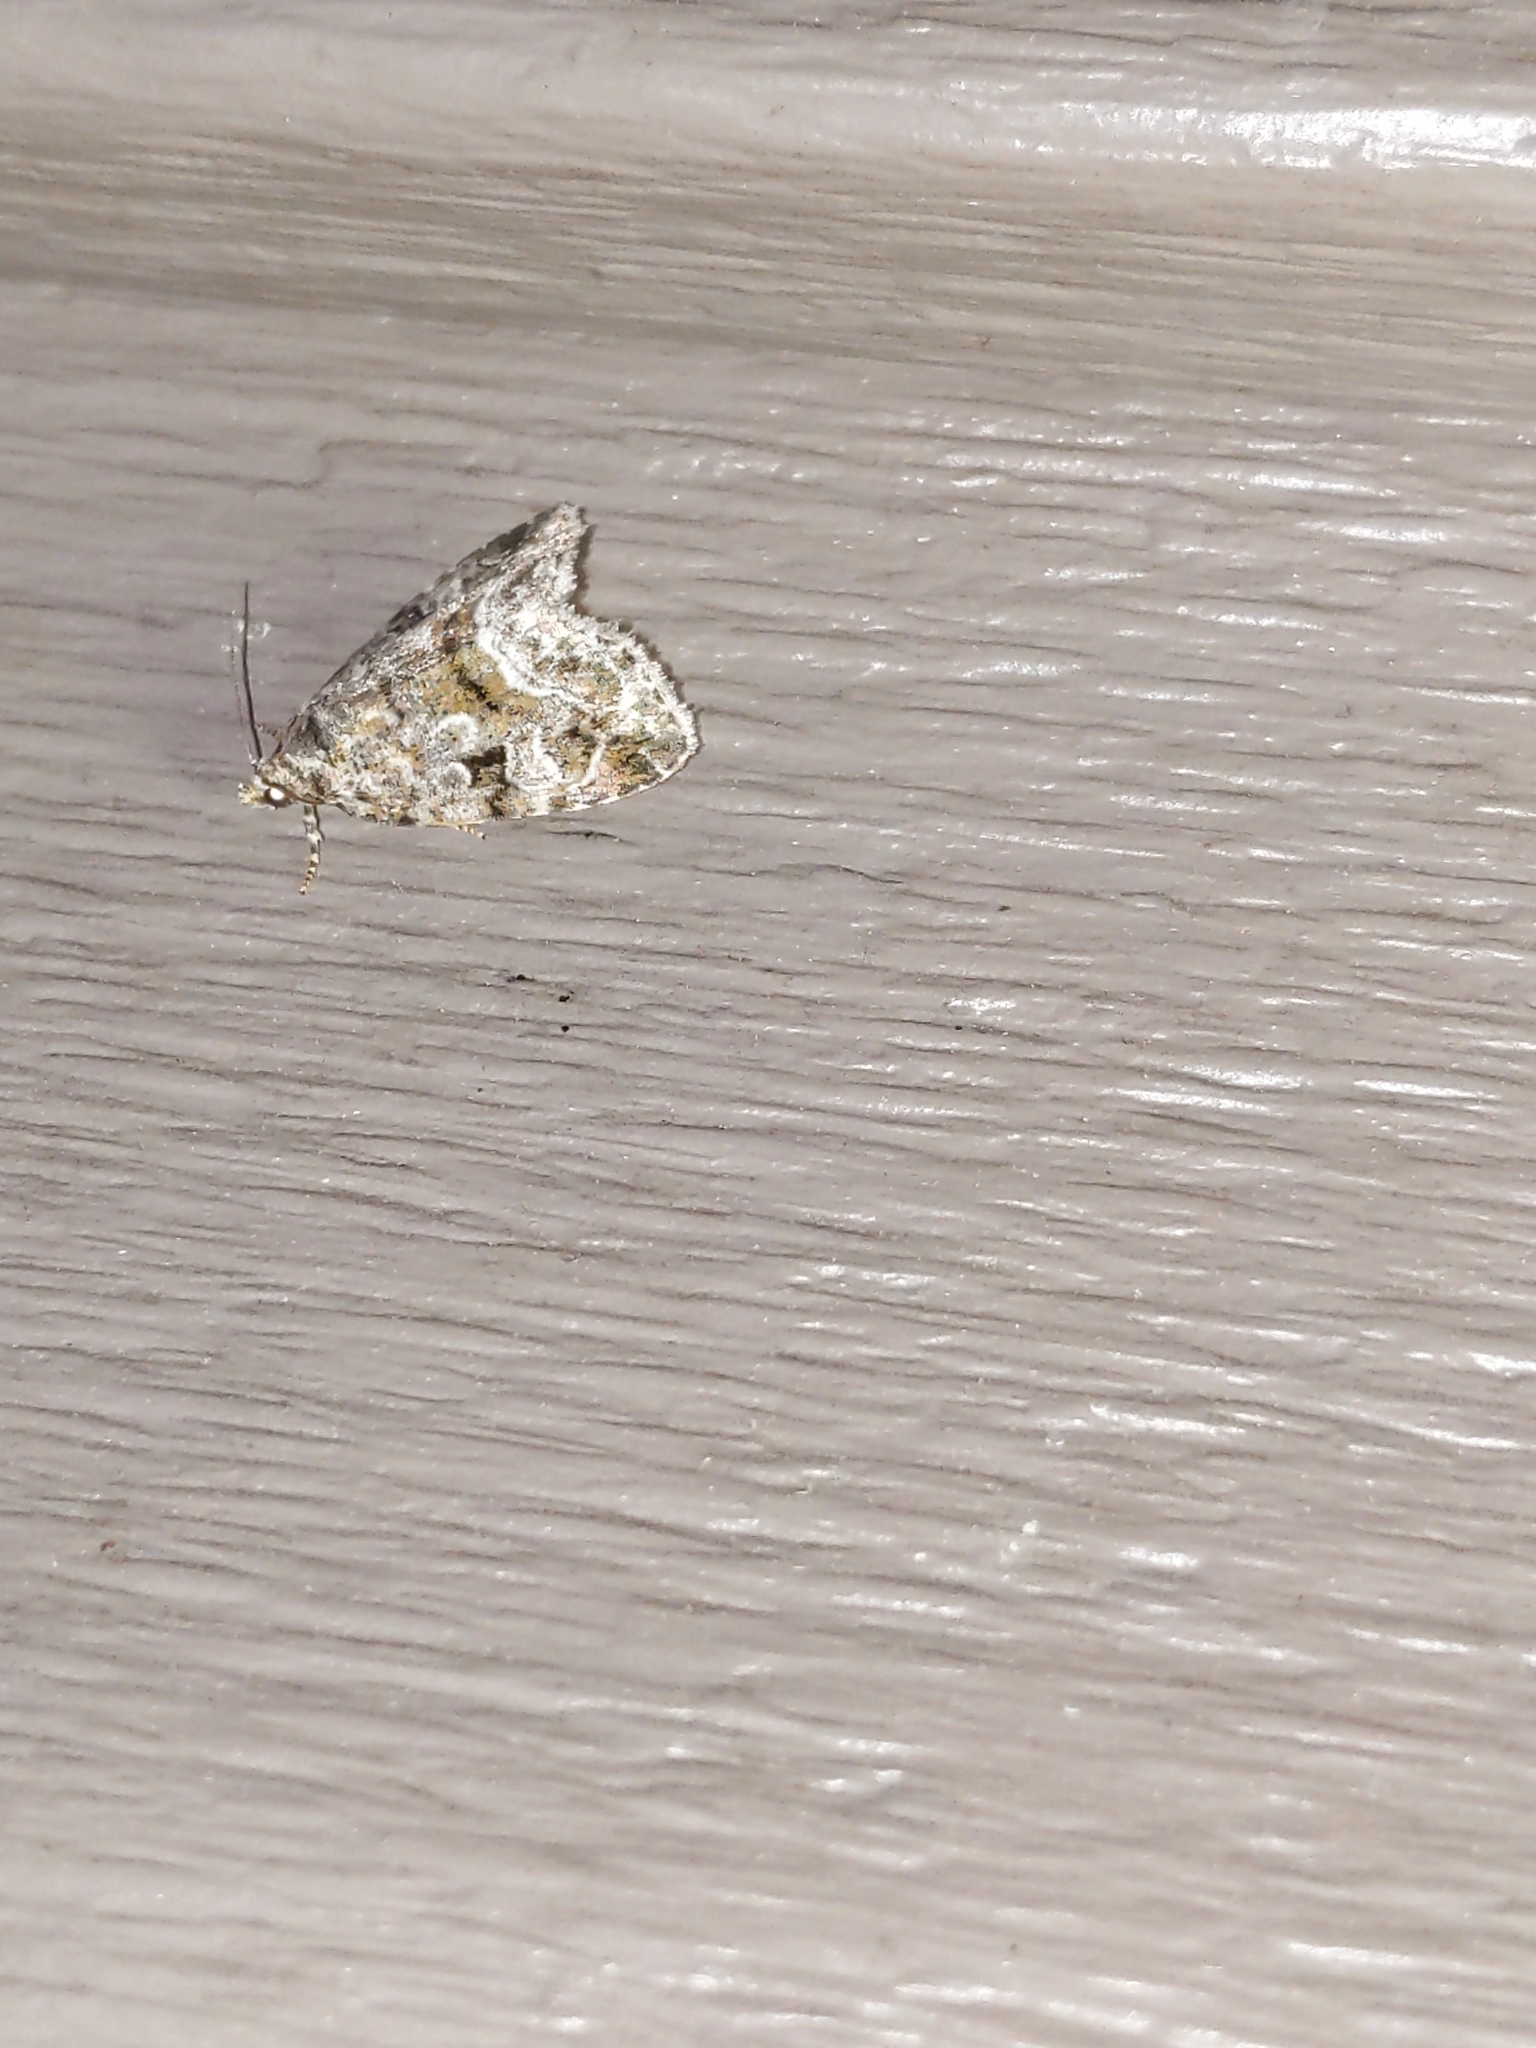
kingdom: Animalia
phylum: Arthropoda
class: Insecta
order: Lepidoptera
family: Noctuidae
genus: Protodeltote
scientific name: Protodeltote muscosula
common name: Large mossy glyph
